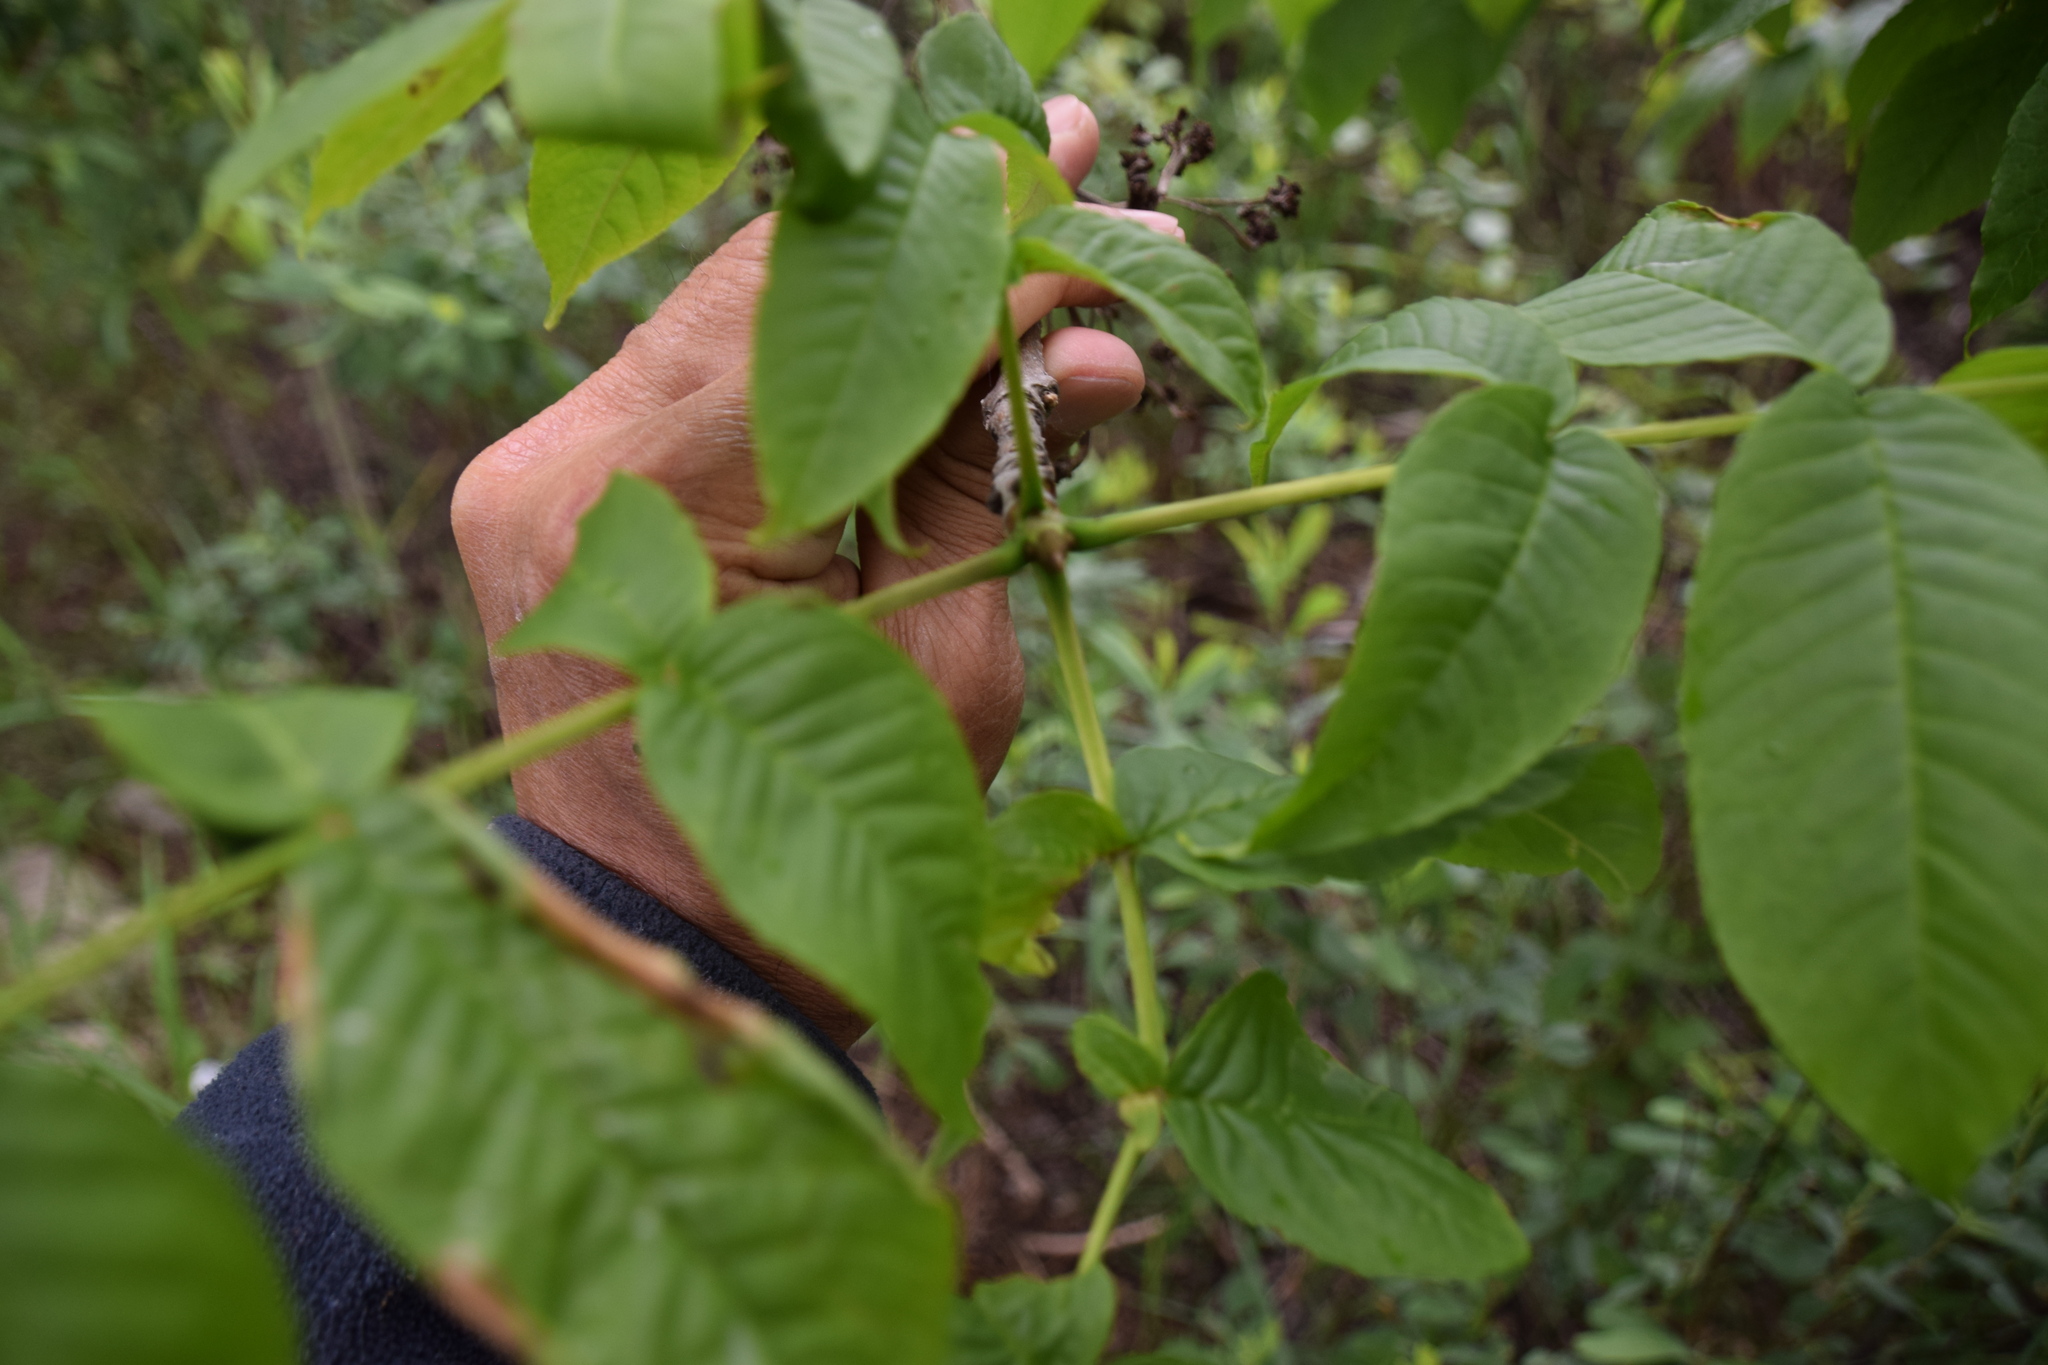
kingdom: Plantae
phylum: Tracheophyta
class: Magnoliopsida
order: Lamiales
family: Oleaceae
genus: Fraxinus
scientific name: Fraxinus nigra
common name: Black ash
